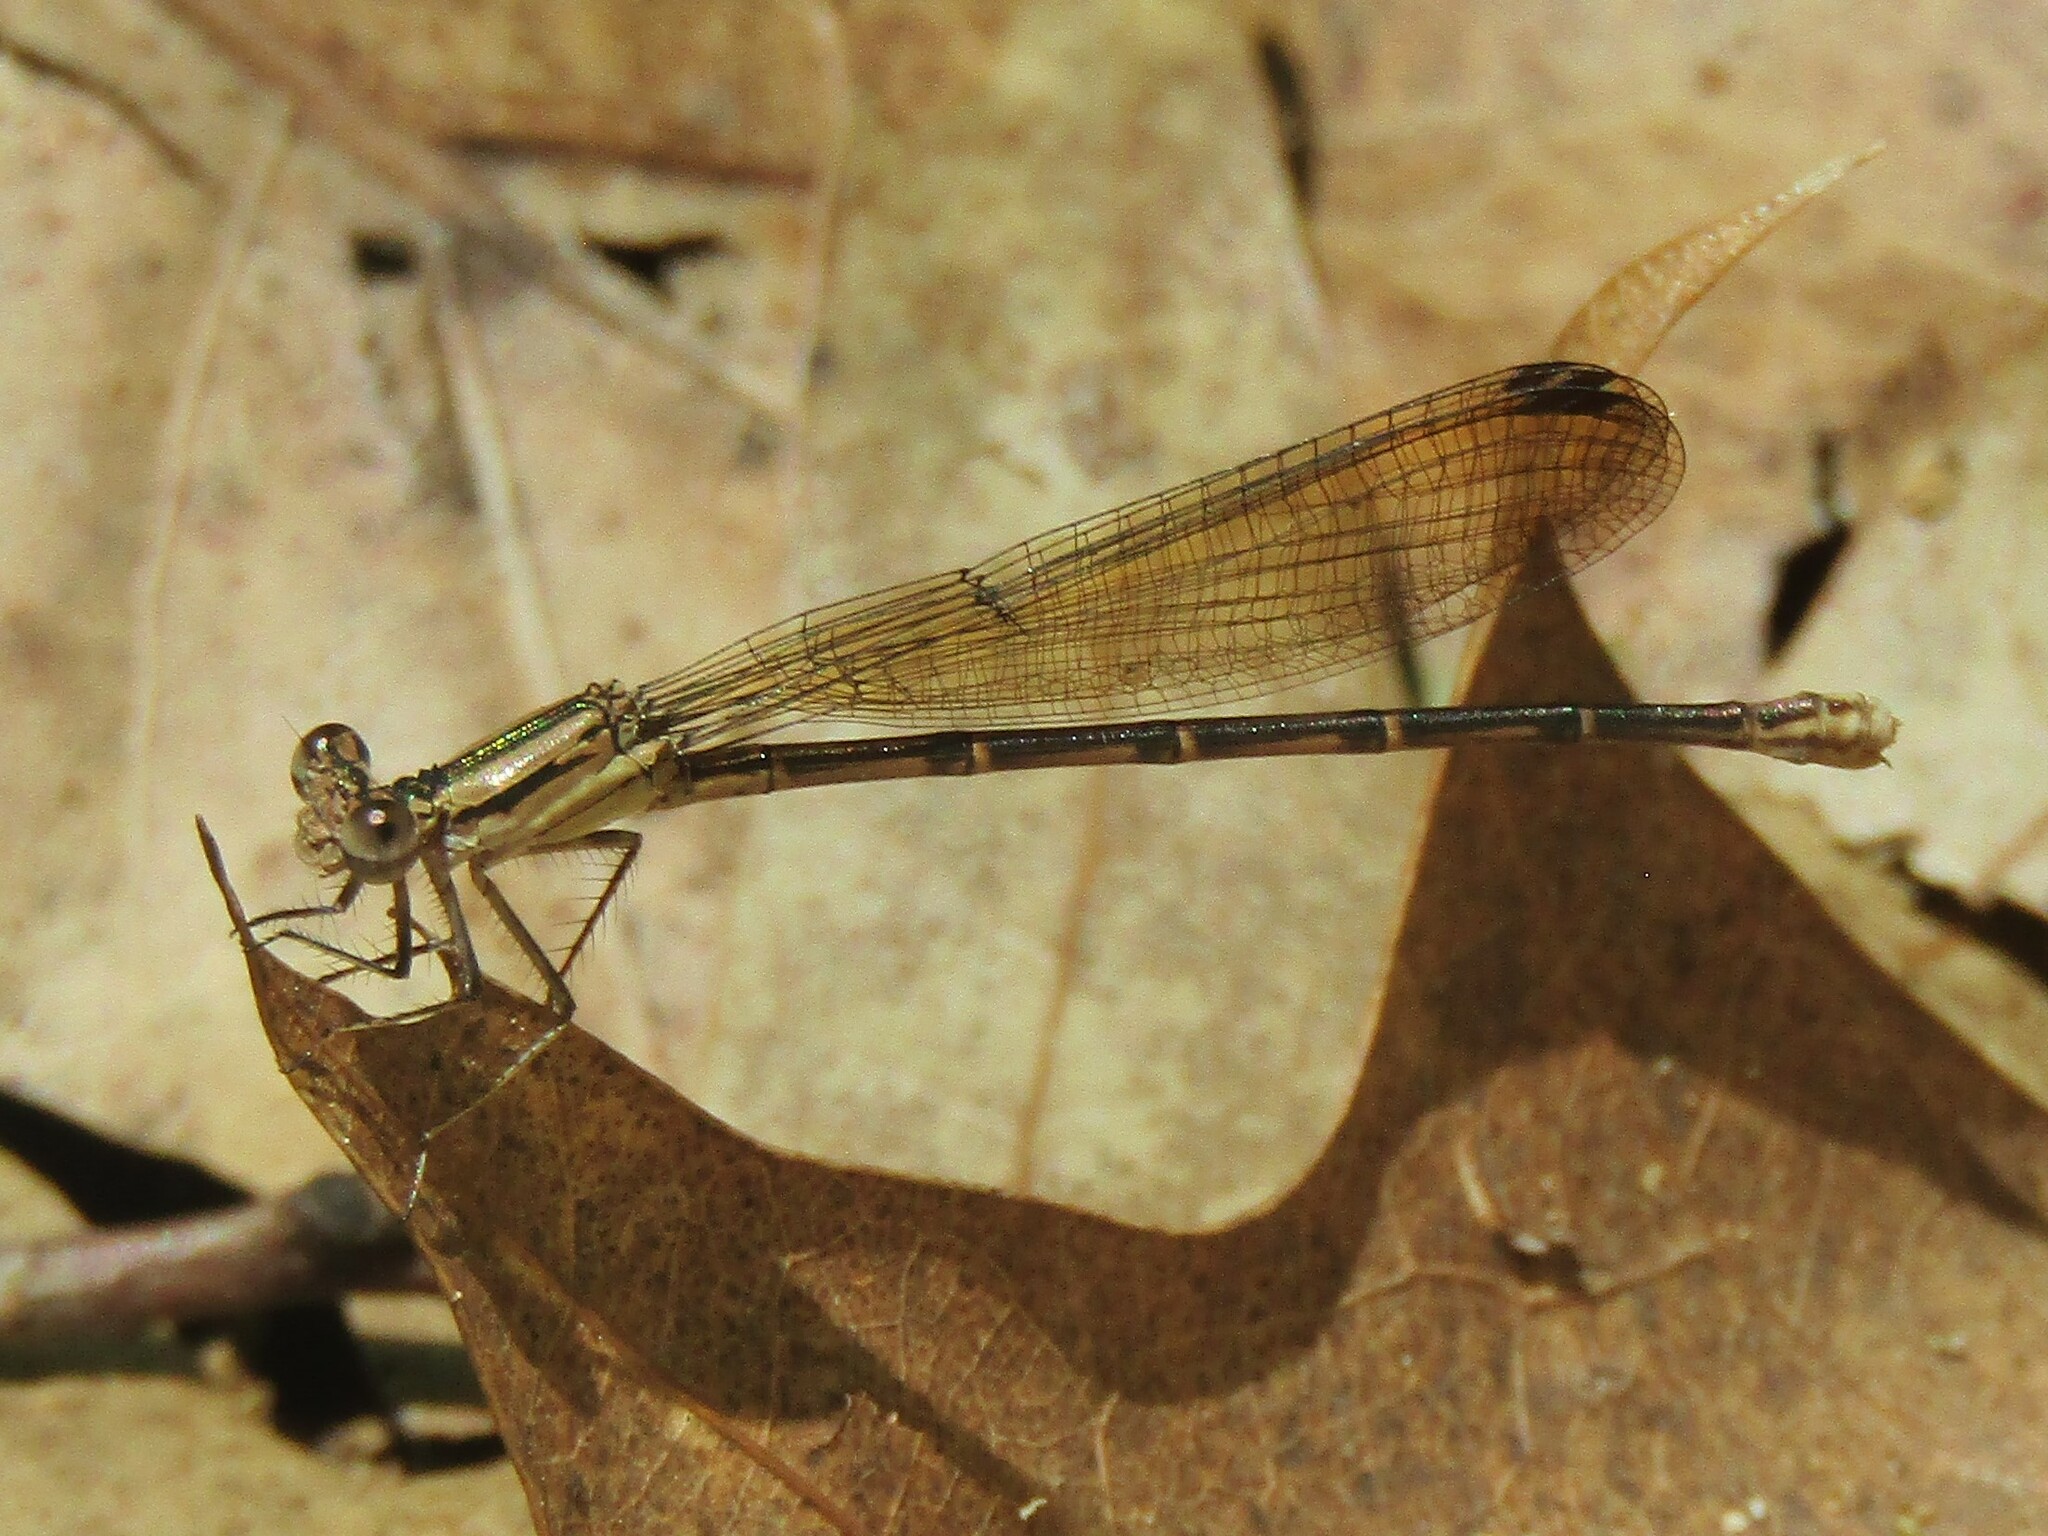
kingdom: Animalia
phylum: Arthropoda
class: Insecta
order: Odonata
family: Coenagrionidae
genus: Argia
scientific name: Argia fumipennis
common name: Variable dancer
